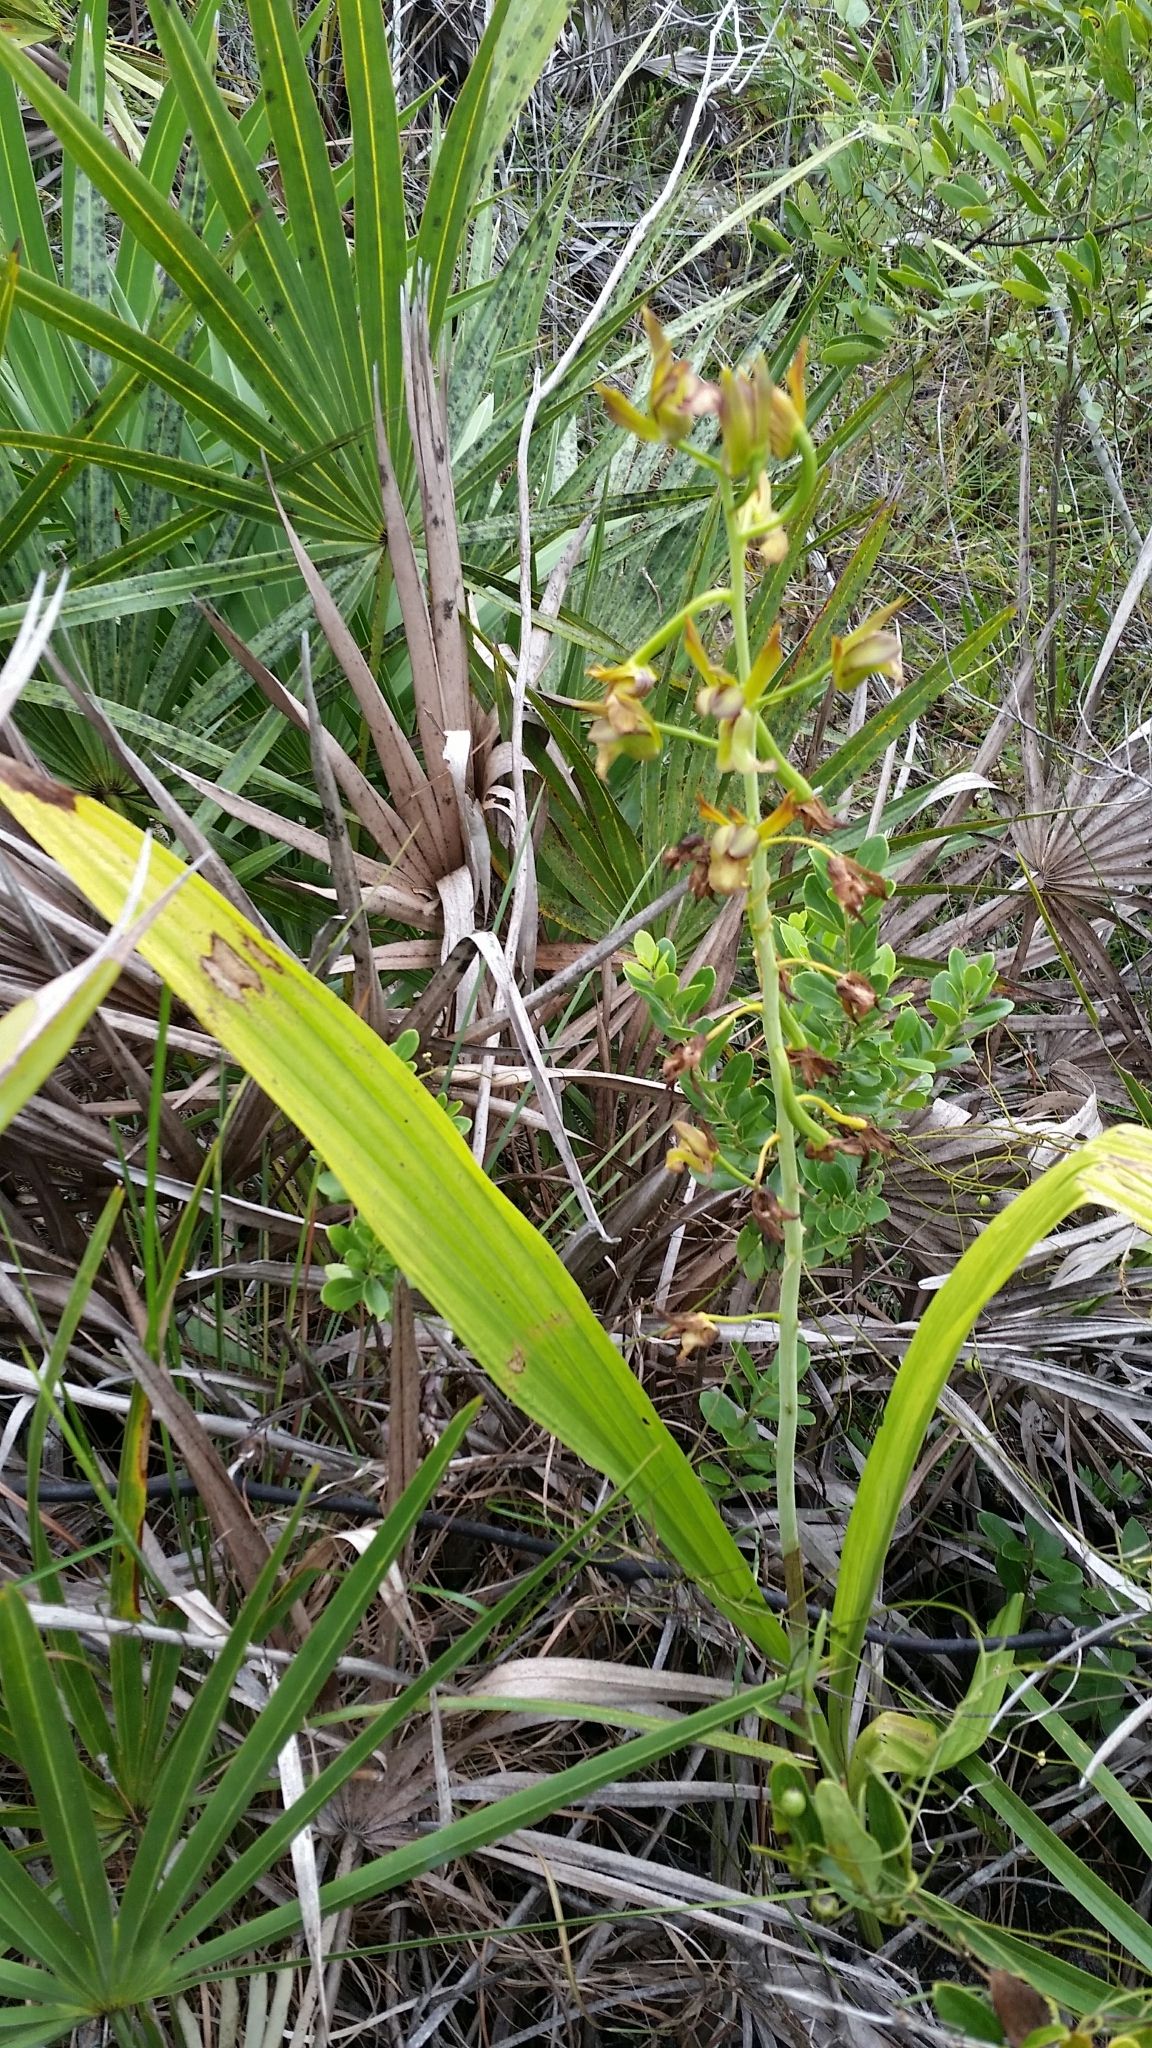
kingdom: Plantae
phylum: Tracheophyta
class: Liliopsida
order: Asparagales
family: Orchidaceae
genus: Eulophia
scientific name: Eulophia alta
